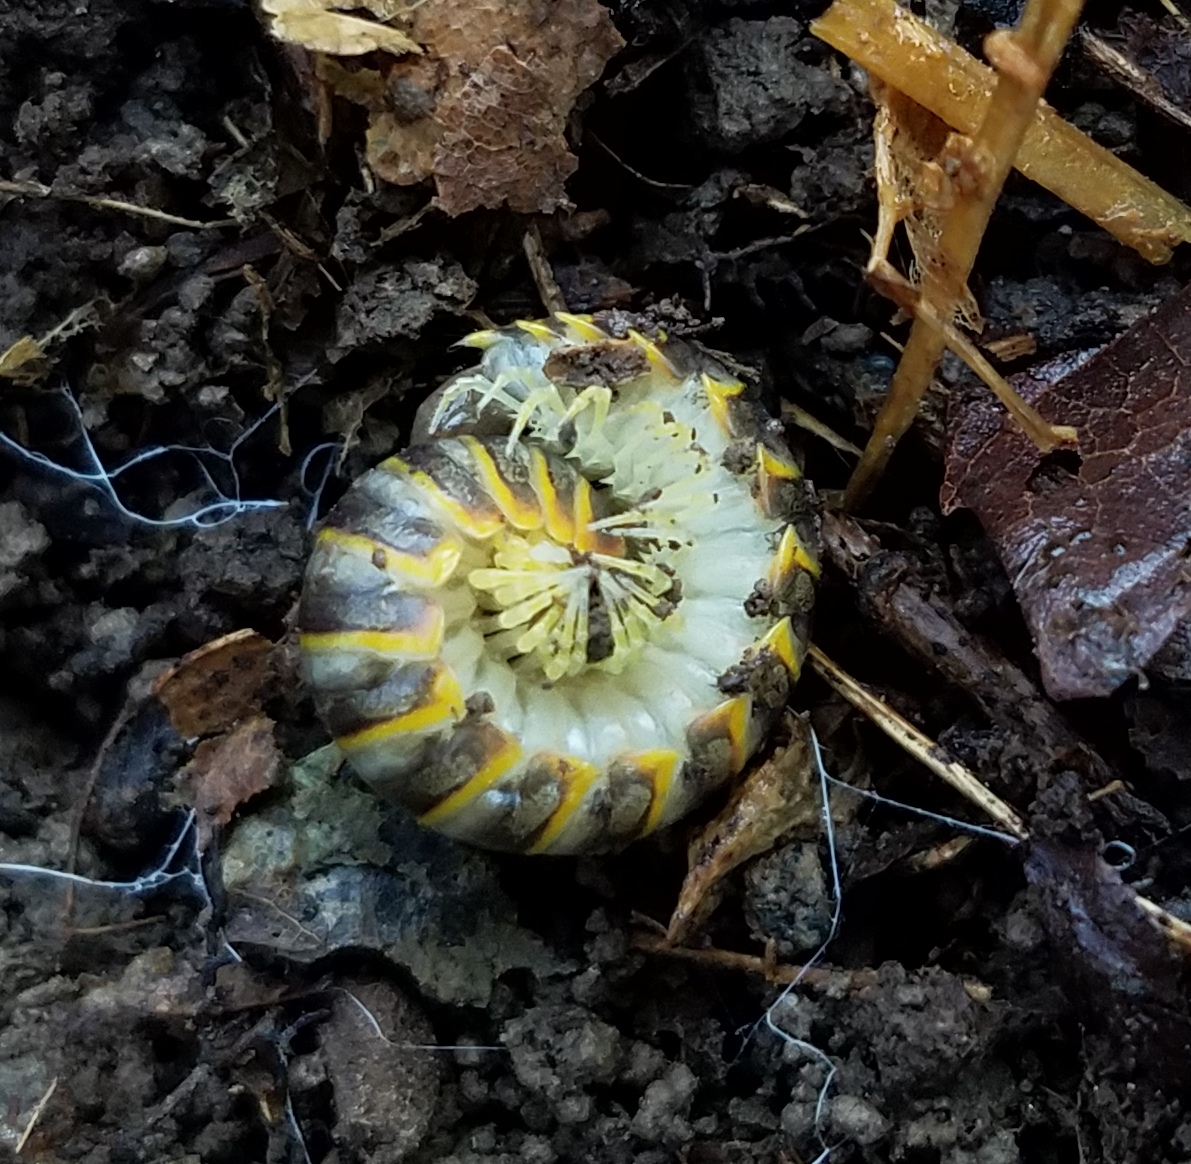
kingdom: Animalia
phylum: Arthropoda
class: Diplopoda
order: Polydesmida
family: Xystodesmidae
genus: Apheloria
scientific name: Apheloria virginiensis
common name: Black-and-gold flat millipede
